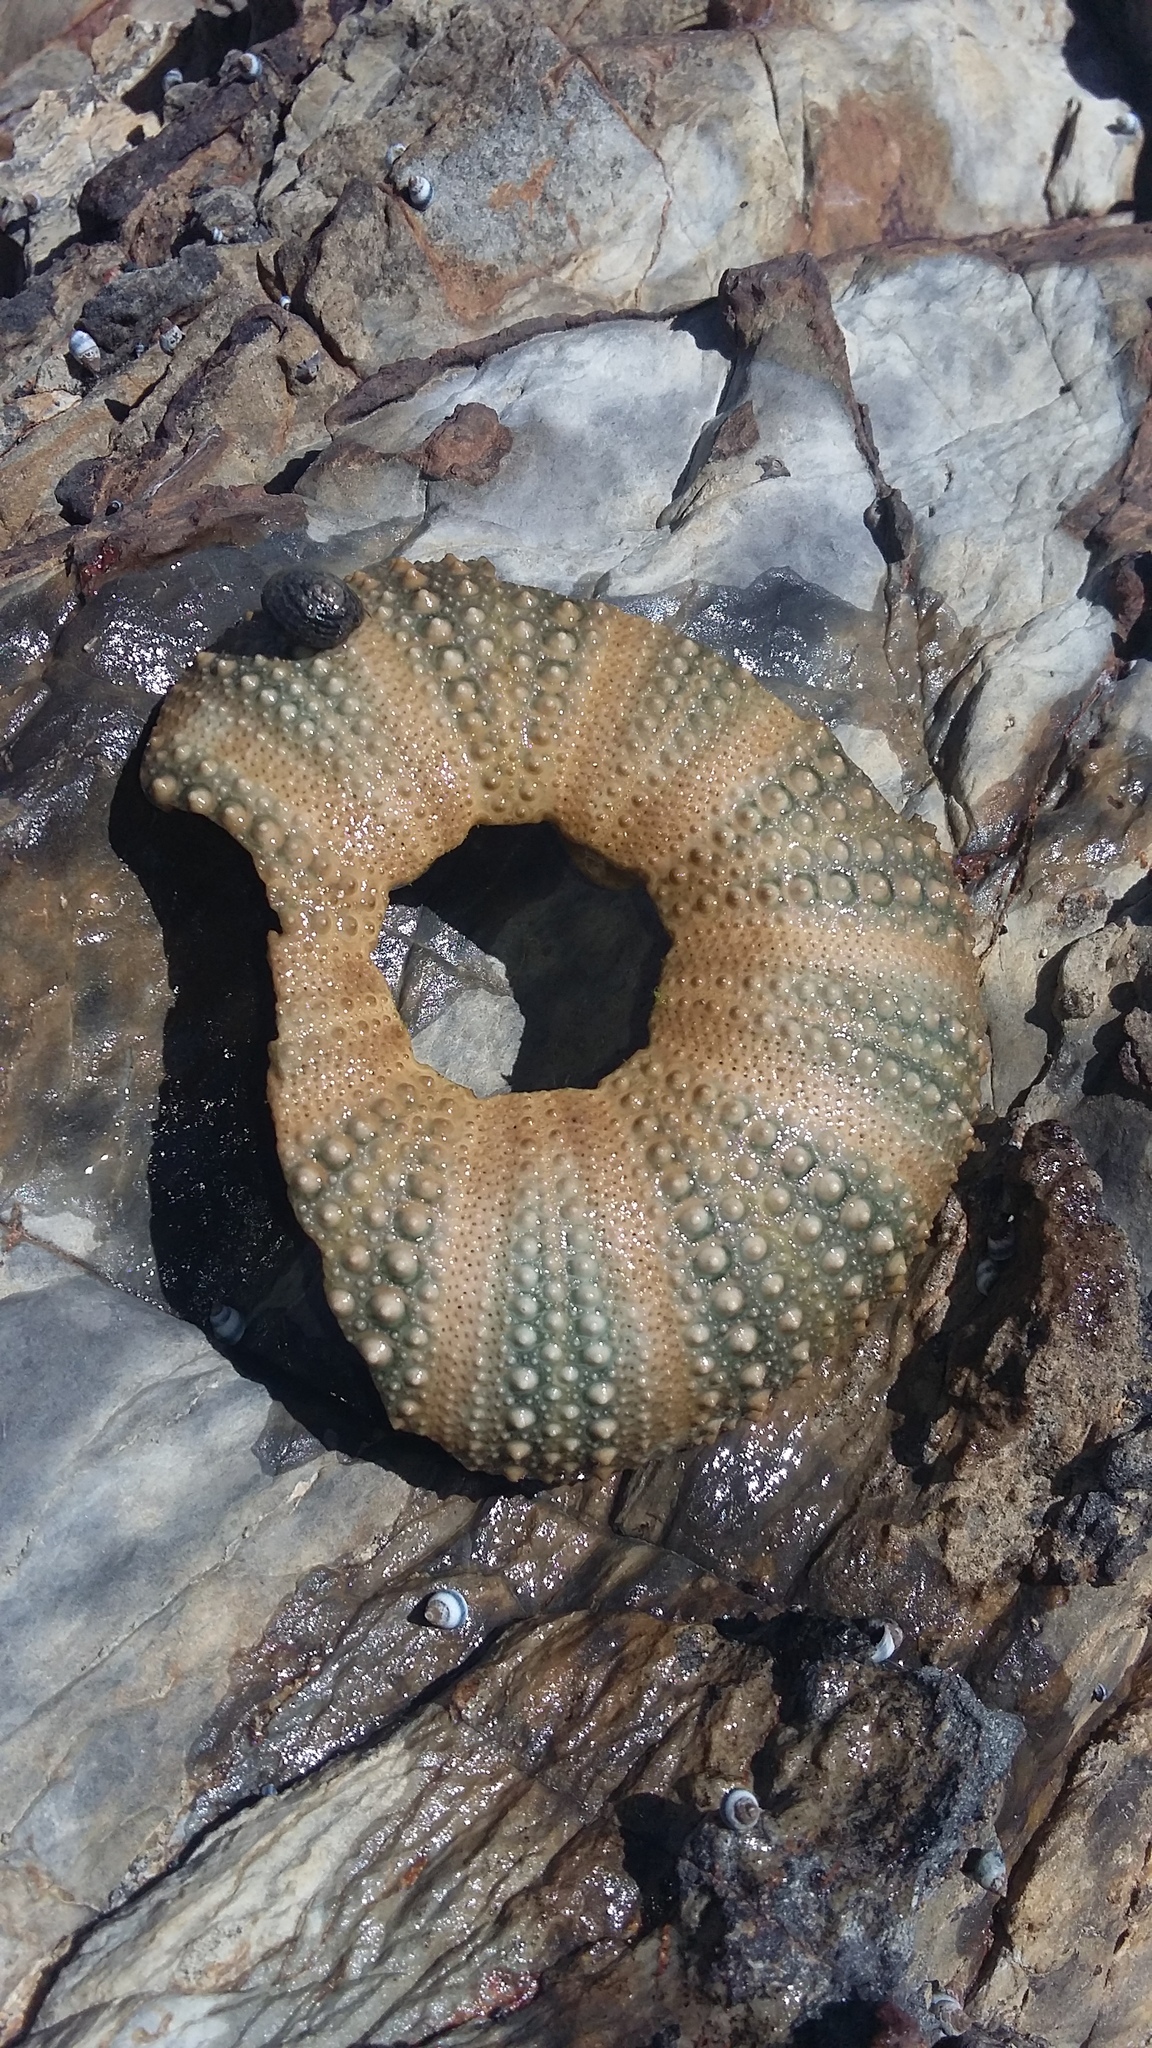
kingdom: Animalia
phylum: Echinodermata
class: Echinoidea
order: Camarodonta
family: Echinometridae
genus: Evechinus
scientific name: Evechinus chloroticus
